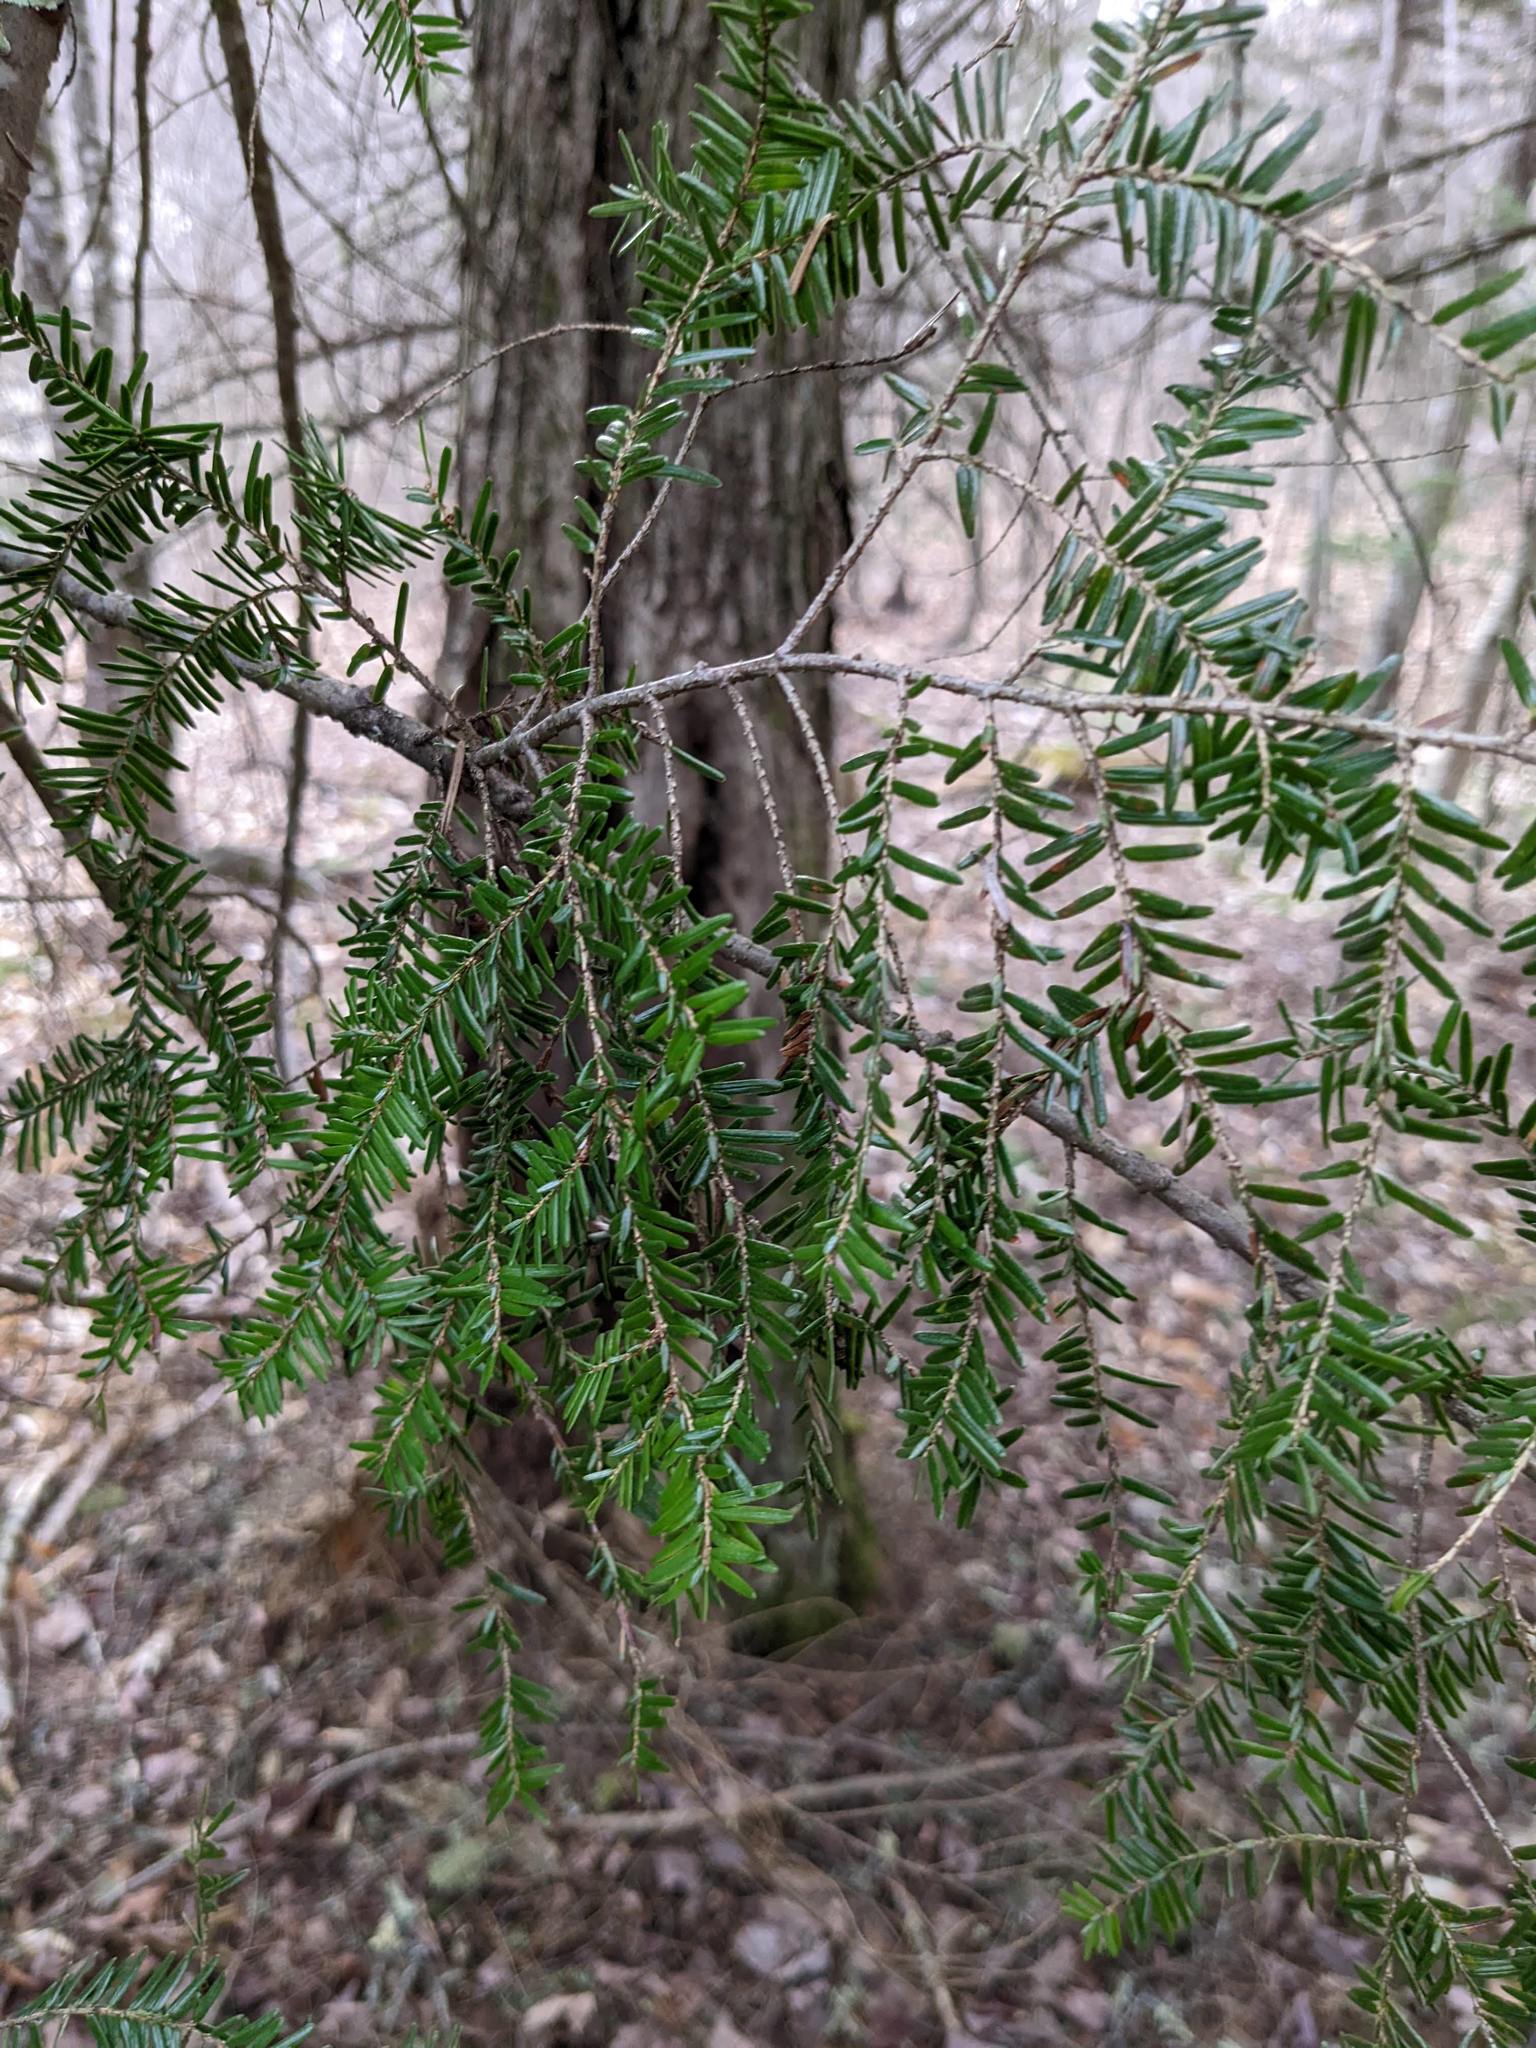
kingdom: Plantae
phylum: Tracheophyta
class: Pinopsida
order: Pinales
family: Pinaceae
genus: Tsuga
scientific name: Tsuga canadensis
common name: Eastern hemlock
